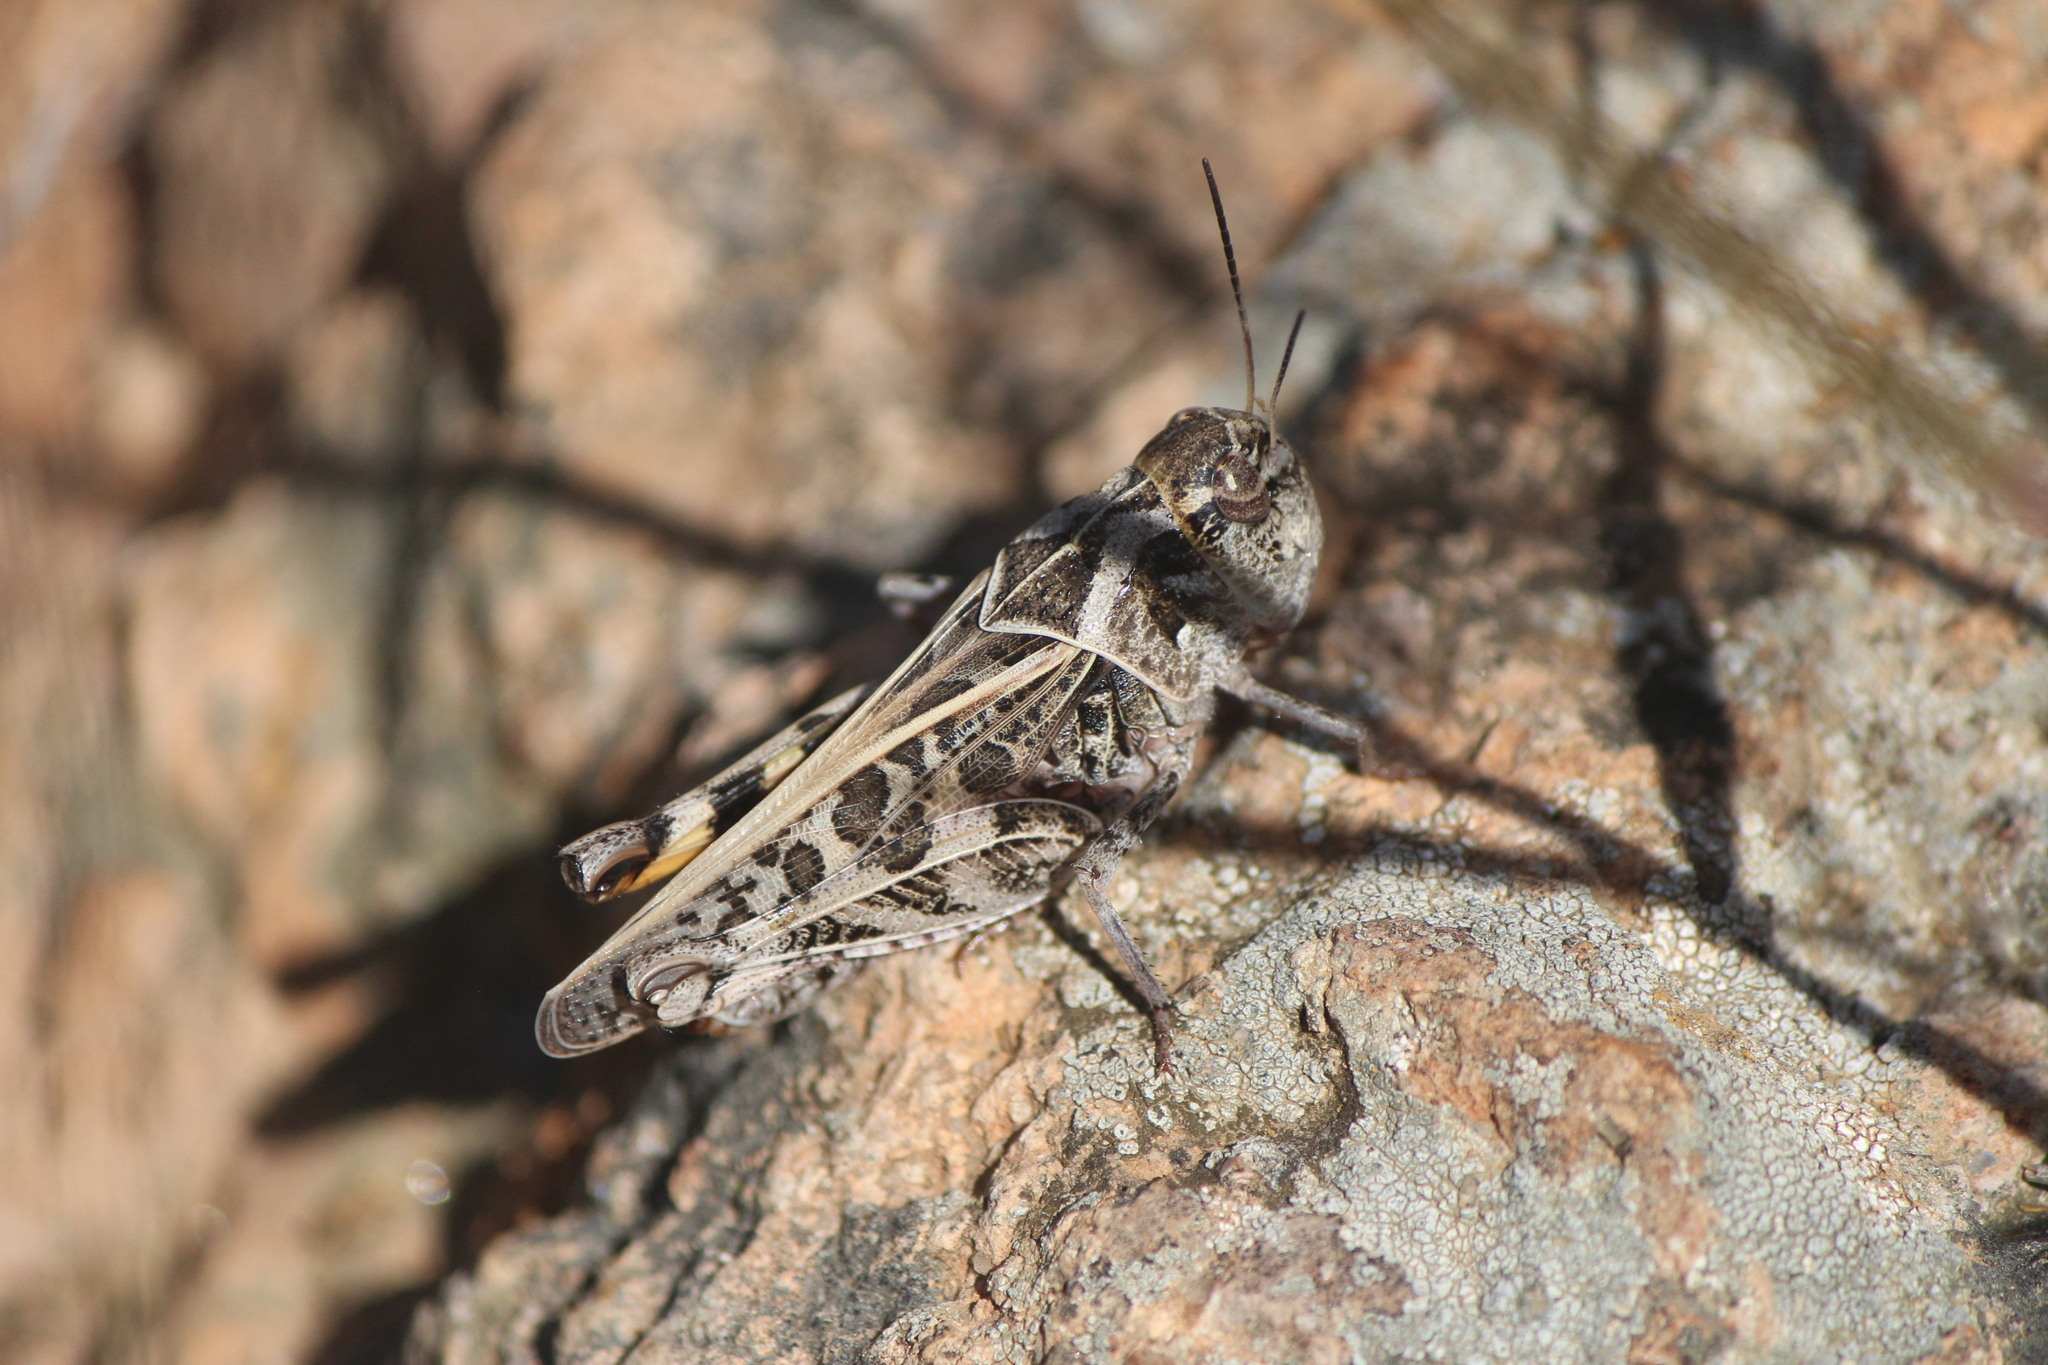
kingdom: Animalia
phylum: Arthropoda
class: Insecta
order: Orthoptera
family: Acrididae
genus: Hippiscus
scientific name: Hippiscus ocelote
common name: Wrinkled grasshopper
